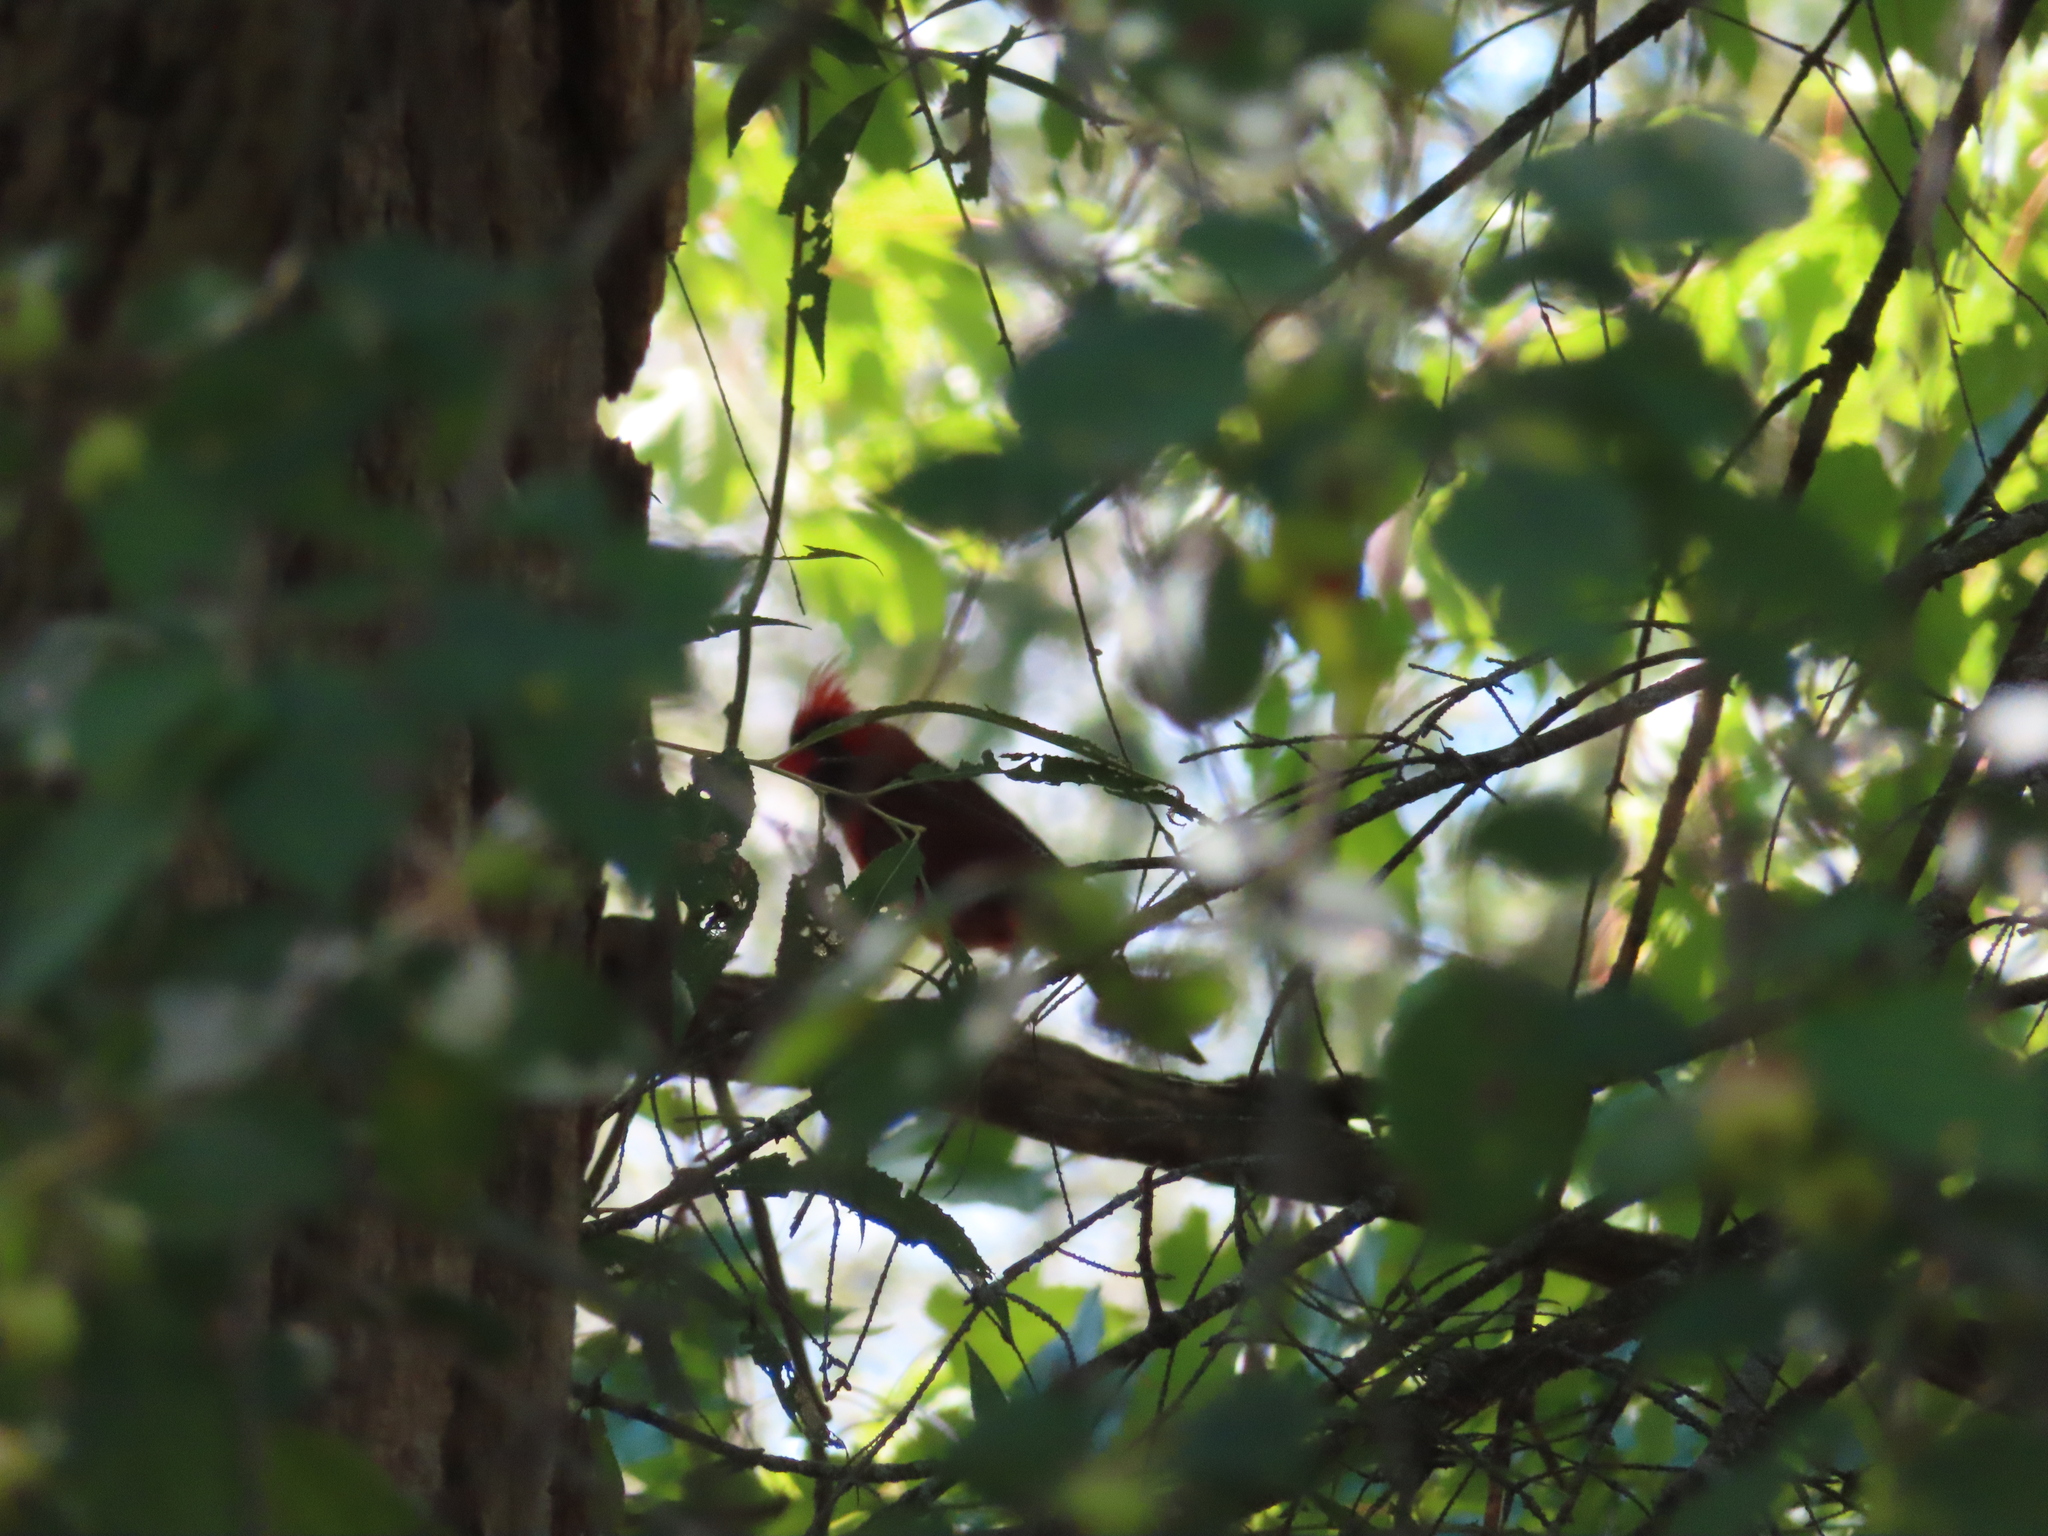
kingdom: Animalia
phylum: Chordata
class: Aves
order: Passeriformes
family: Cardinalidae
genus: Cardinalis
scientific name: Cardinalis cardinalis
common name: Northern cardinal
